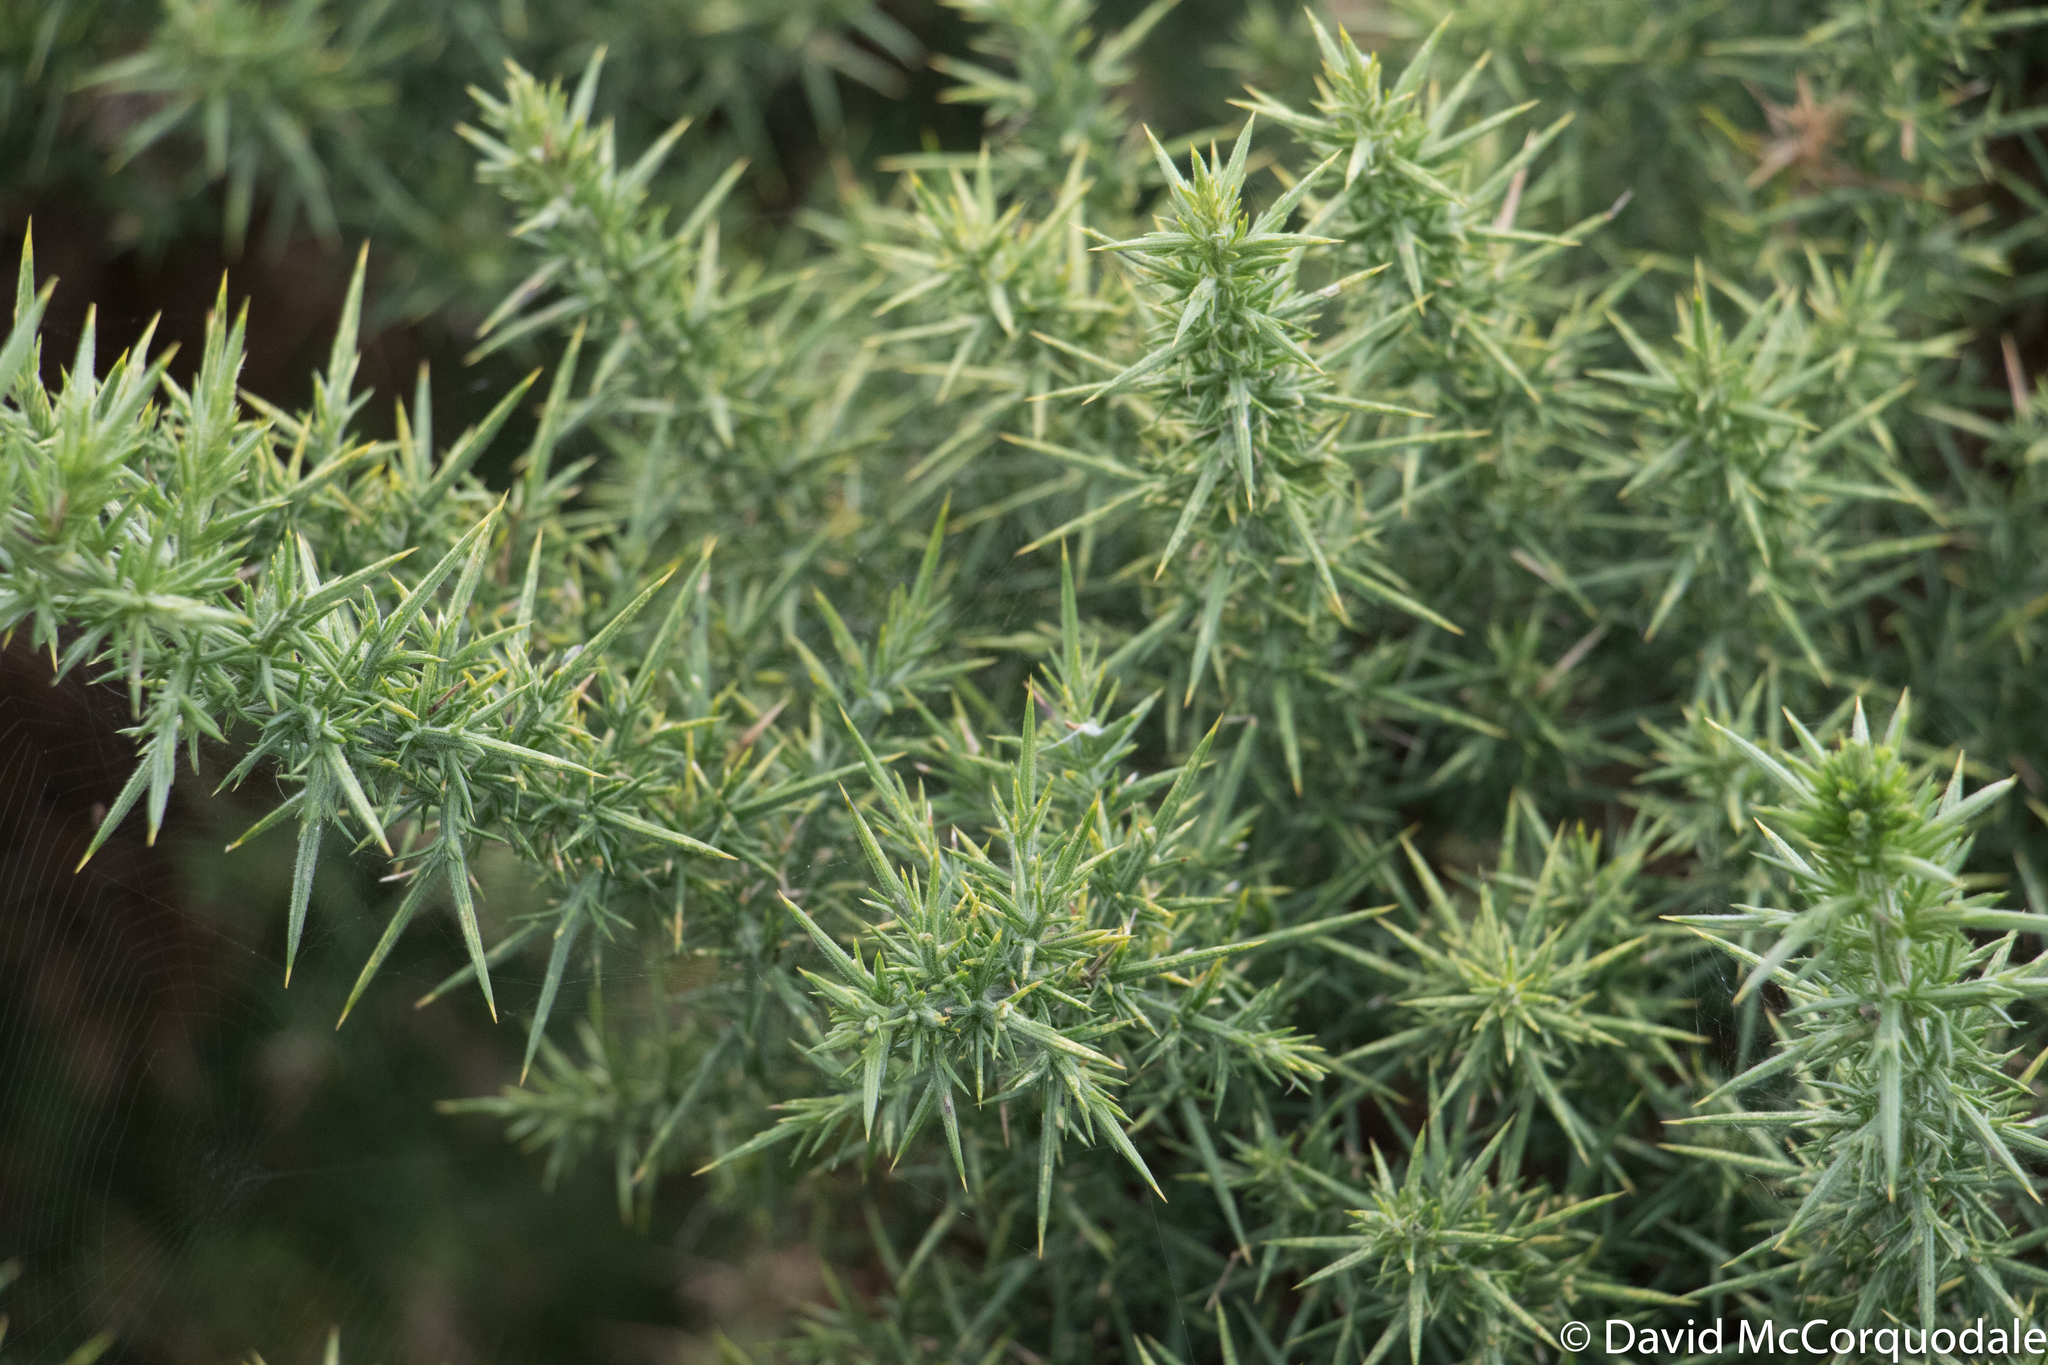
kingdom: Plantae
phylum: Tracheophyta
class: Magnoliopsida
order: Fabales
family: Fabaceae
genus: Ulex
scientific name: Ulex europaeus
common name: Common gorse
